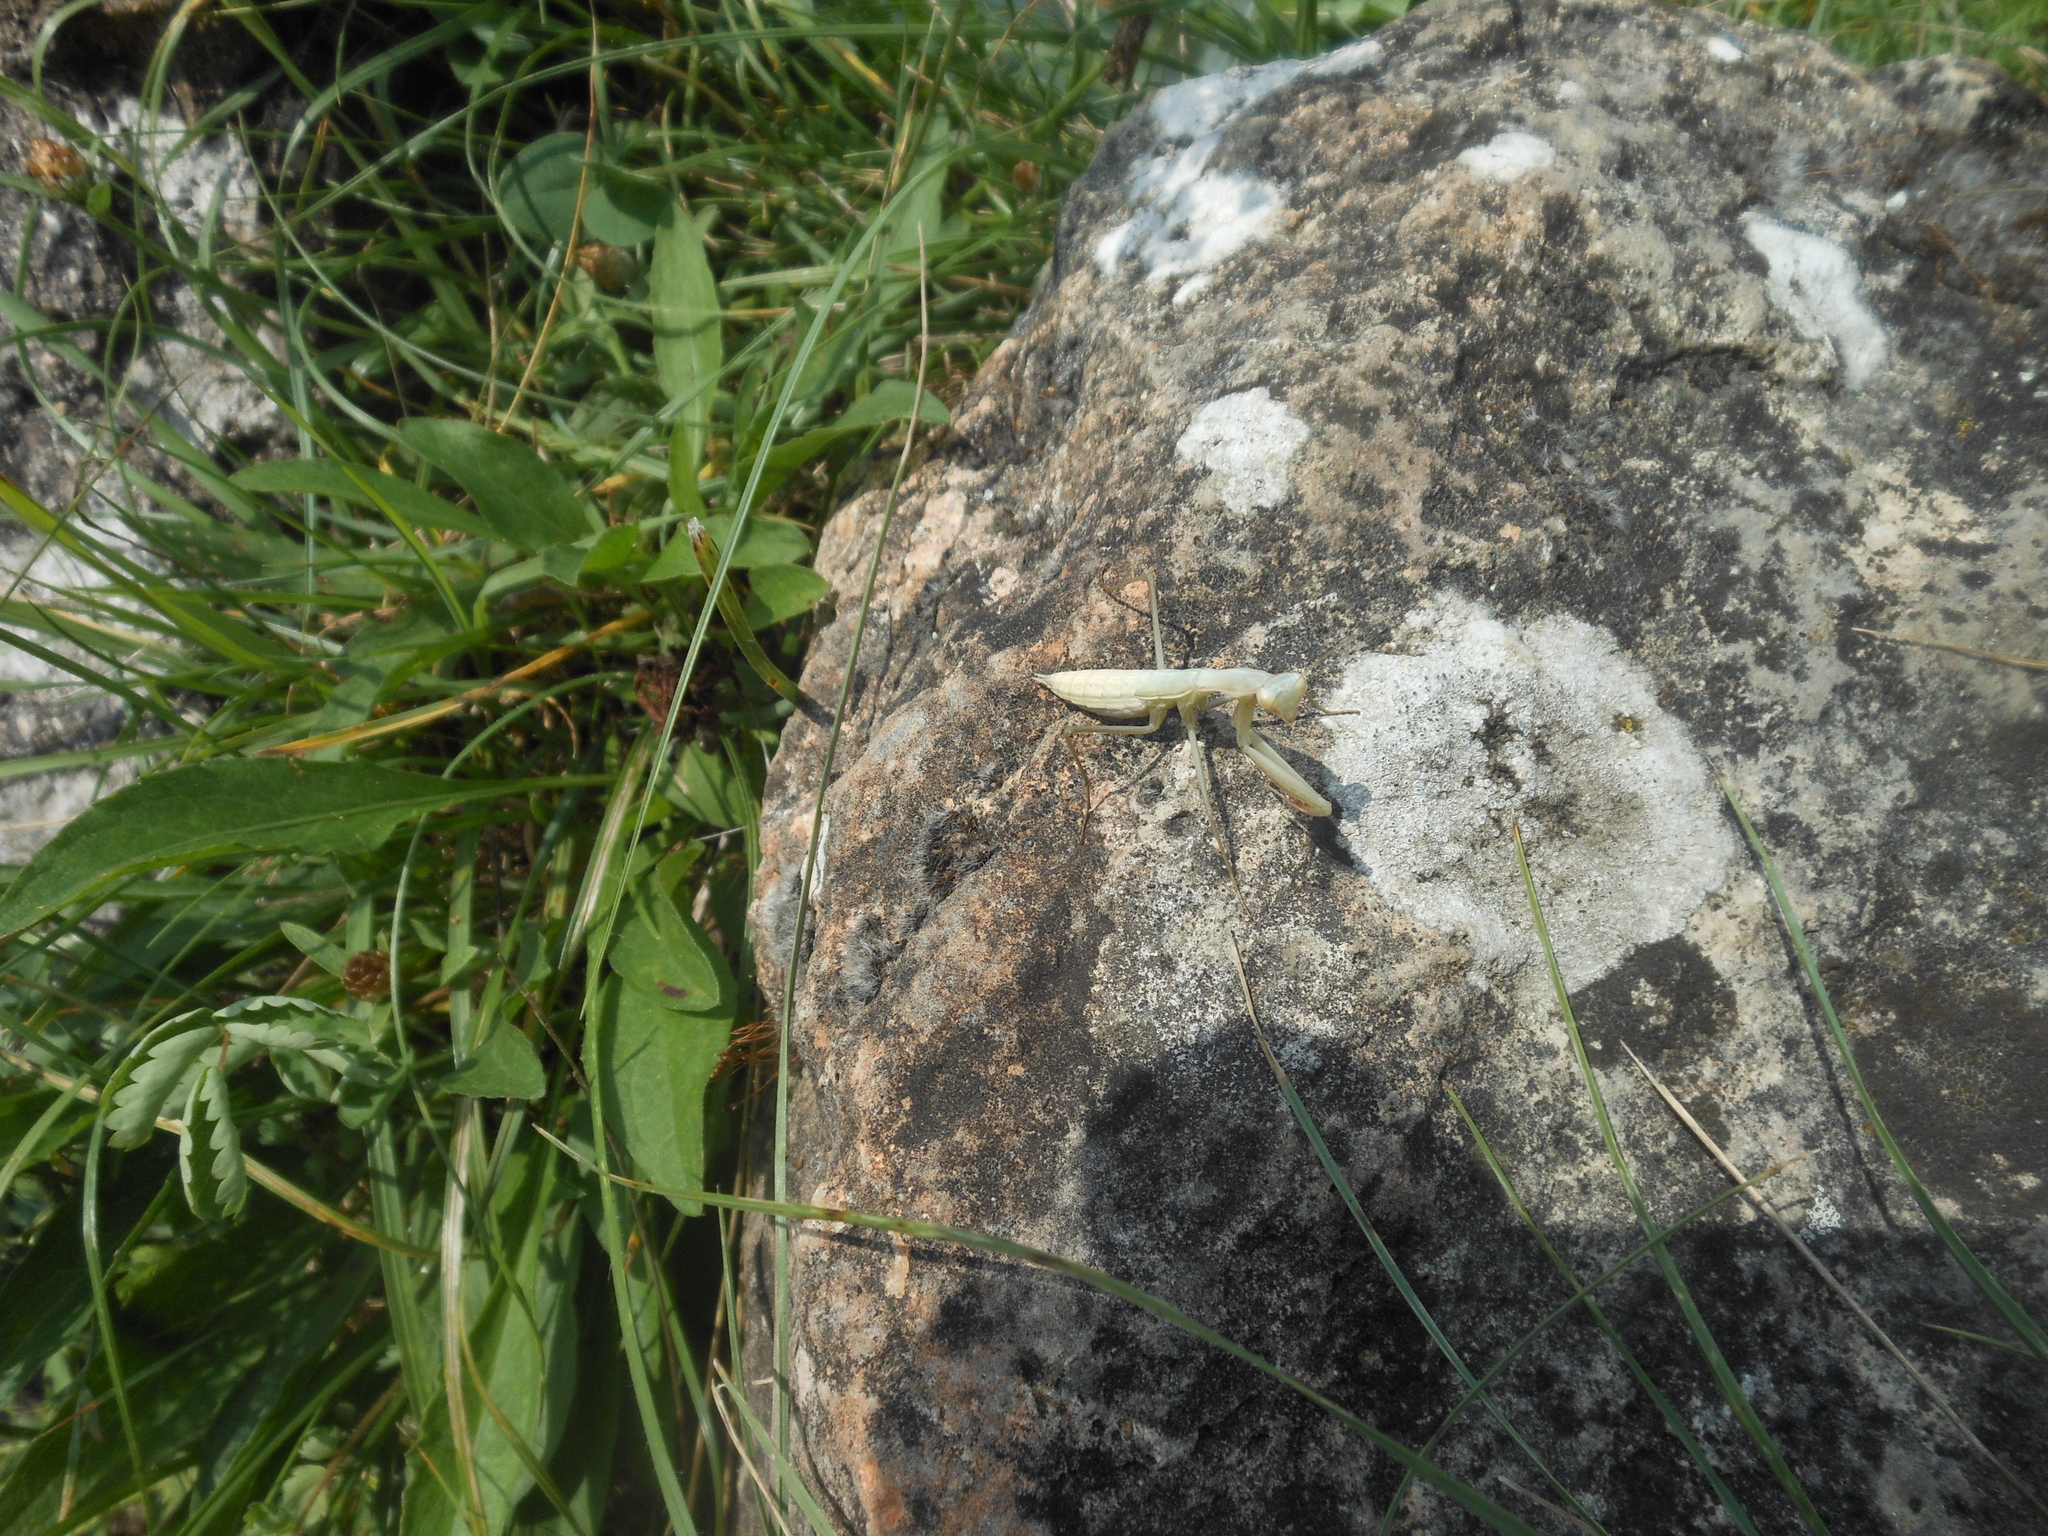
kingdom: Animalia
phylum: Arthropoda
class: Insecta
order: Mantodea
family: Mantidae
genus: Mantis
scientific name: Mantis religiosa
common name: Praying mantis
